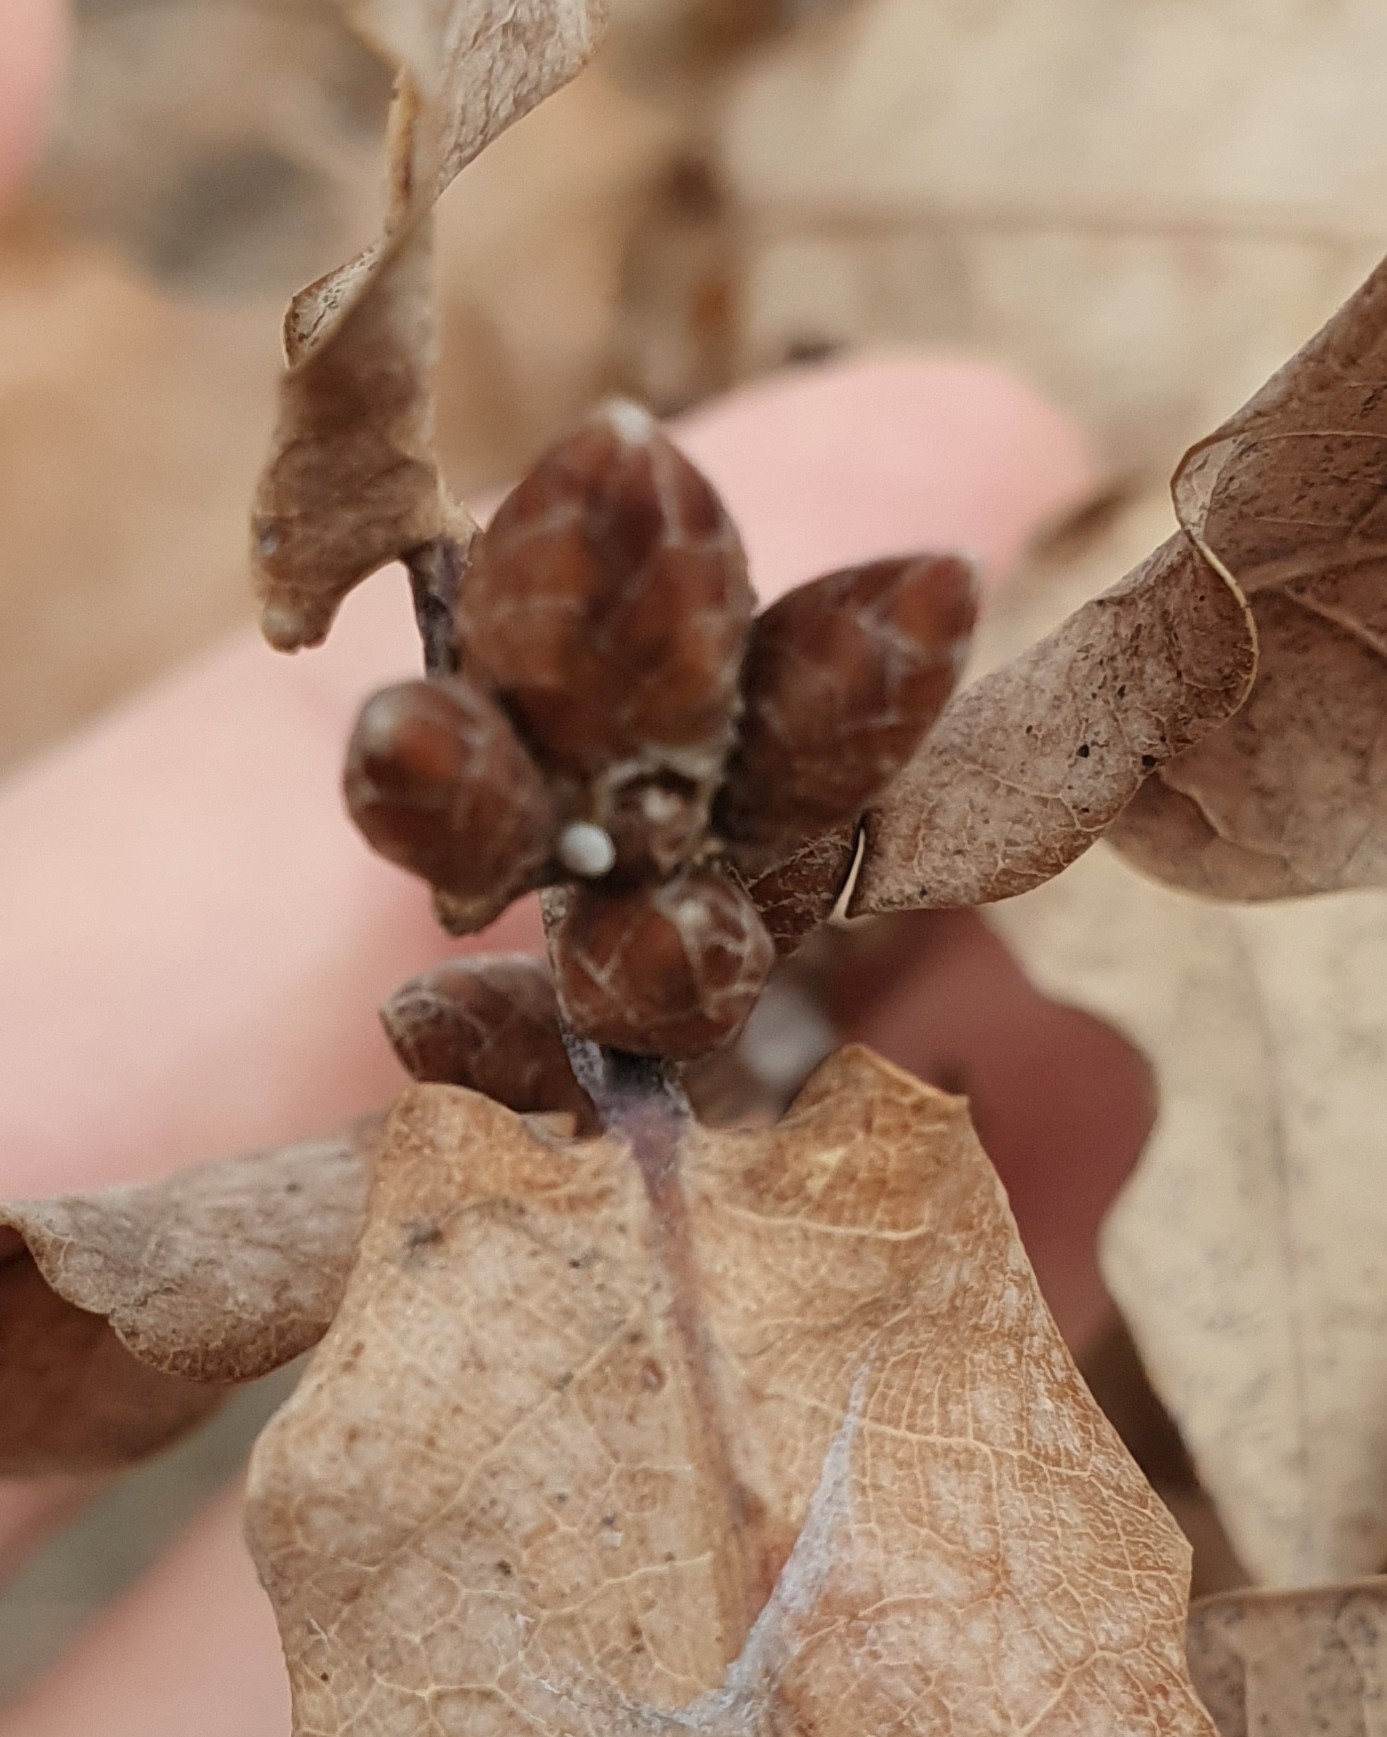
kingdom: Animalia
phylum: Arthropoda
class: Insecta
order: Lepidoptera
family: Lycaenidae
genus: Quercusia
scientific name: Quercusia quercus
